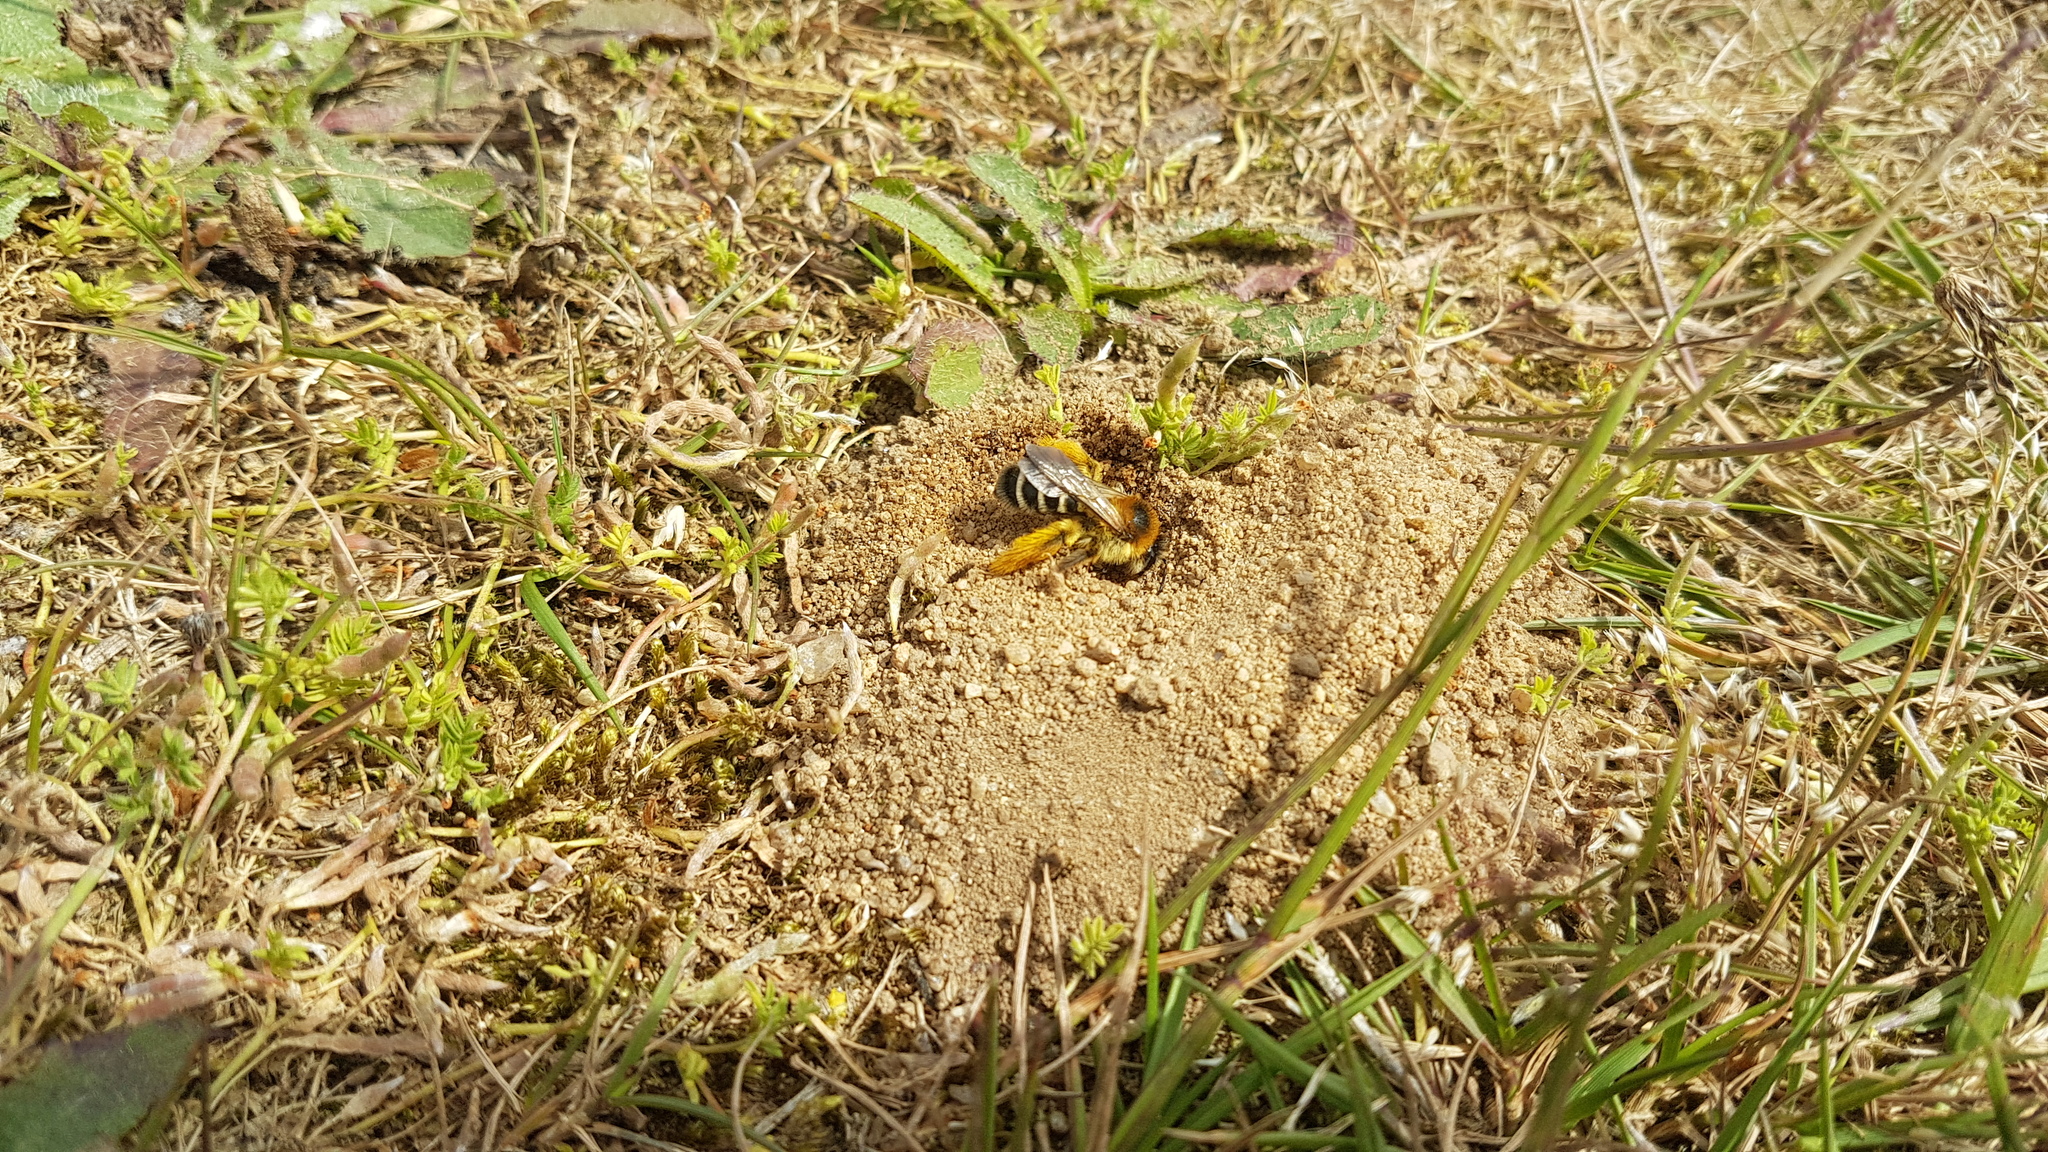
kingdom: Animalia
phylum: Arthropoda
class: Insecta
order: Hymenoptera
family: Melittidae
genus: Dasypoda
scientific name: Dasypoda hirtipes
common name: Pantaloon bee
